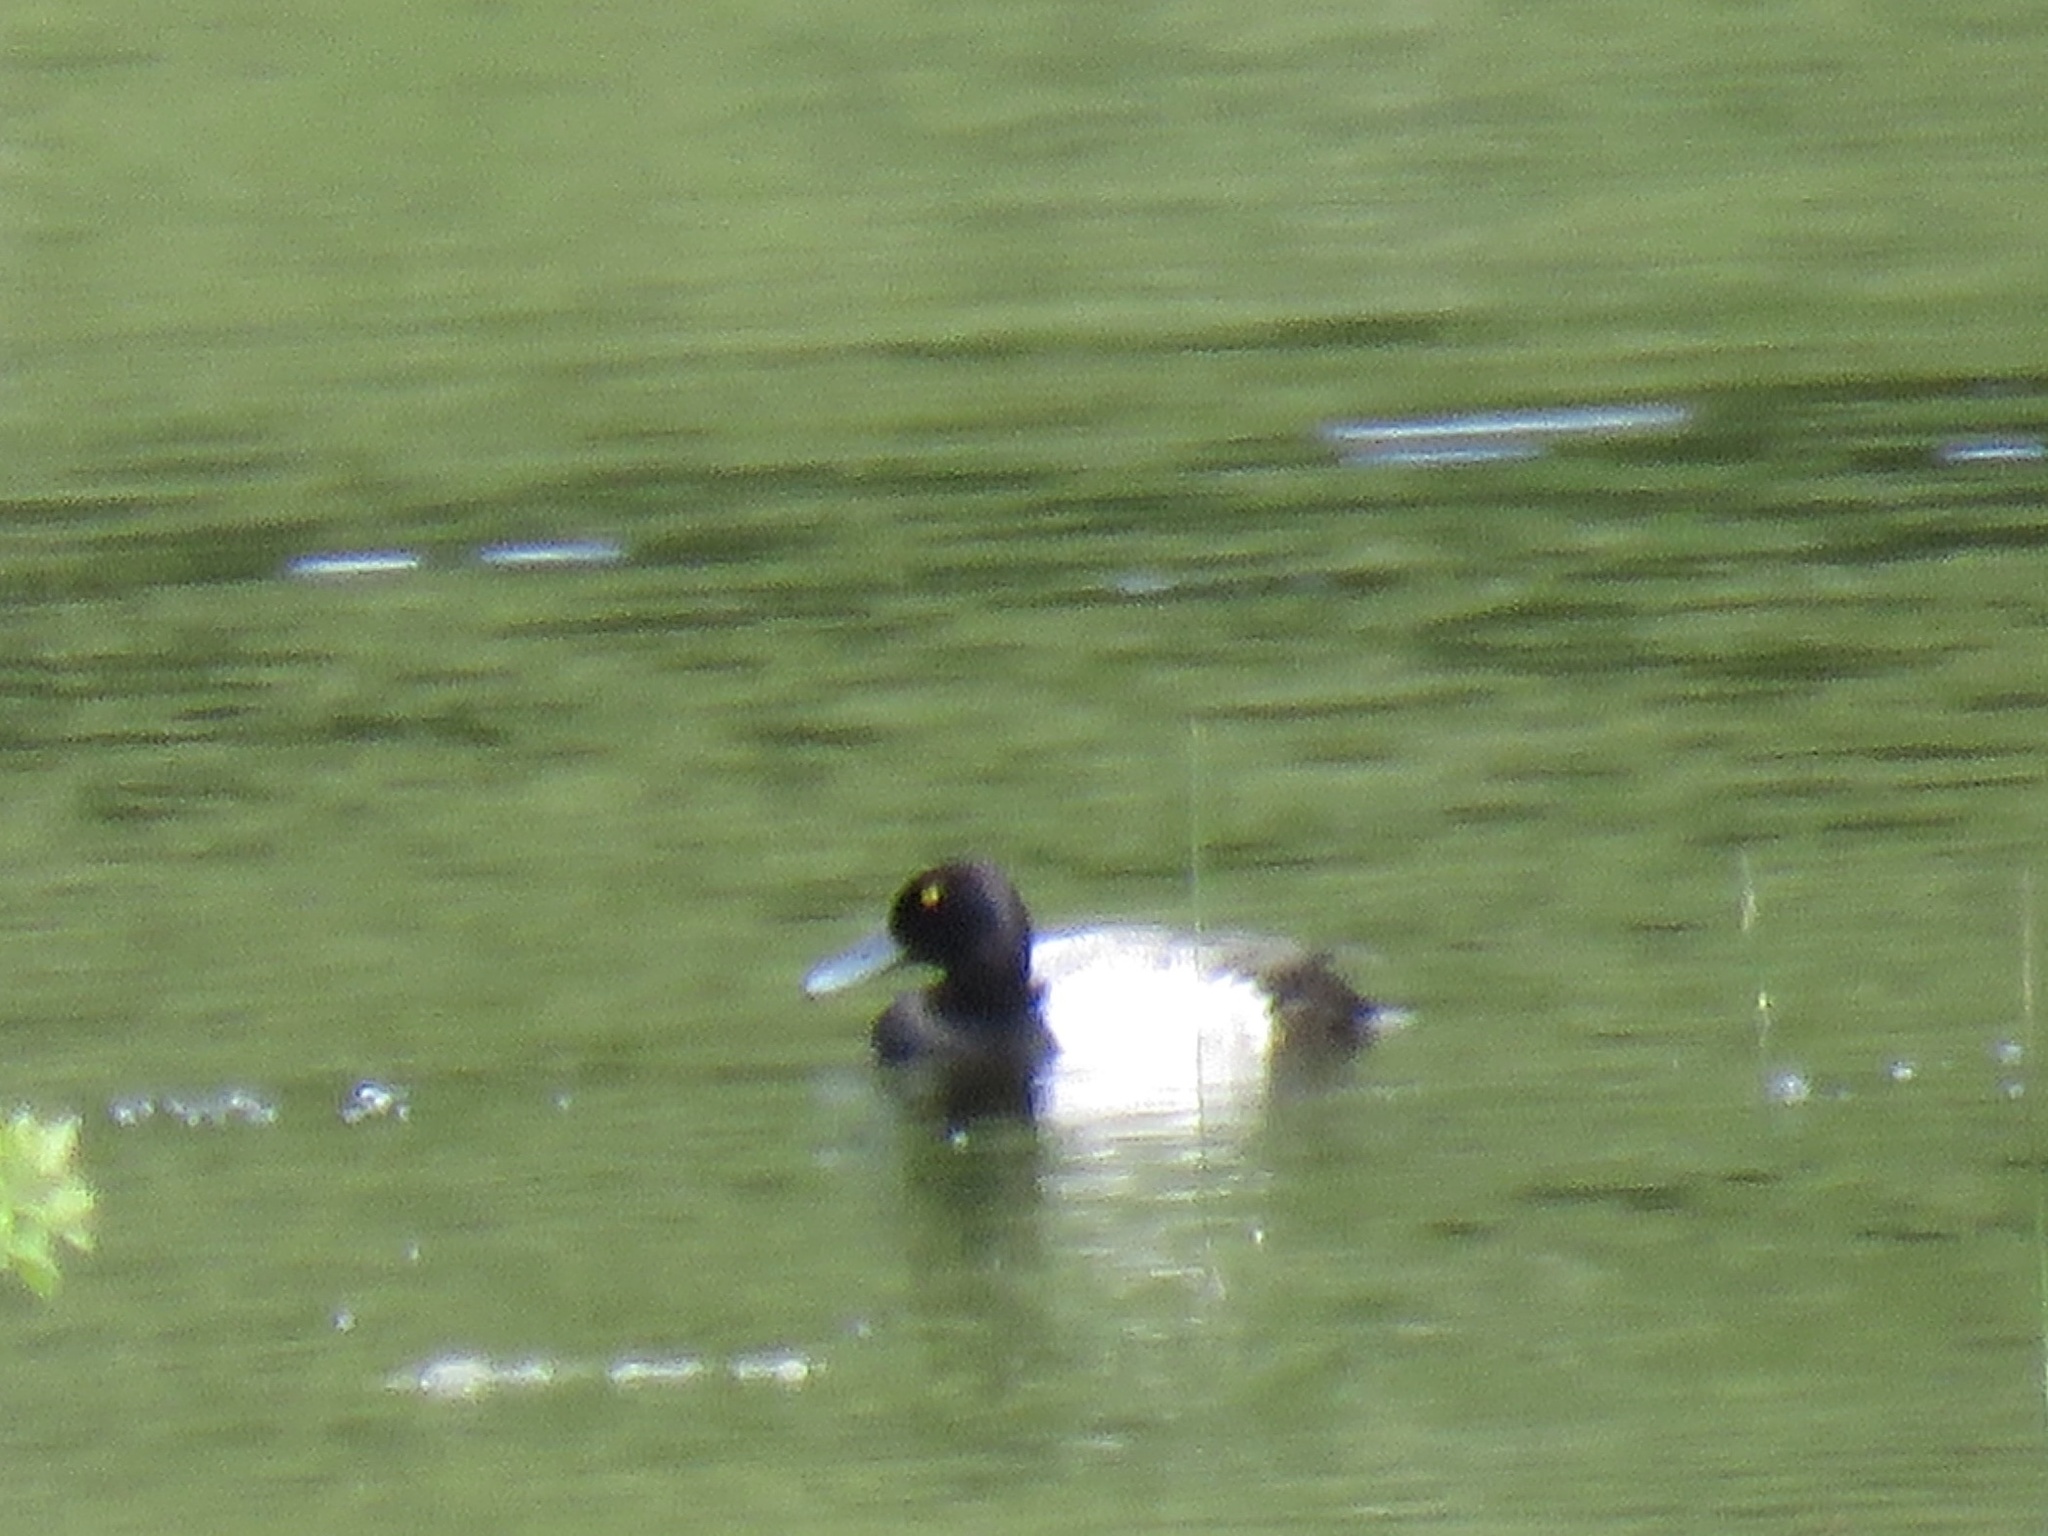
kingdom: Animalia
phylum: Chordata
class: Aves
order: Anseriformes
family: Anatidae
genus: Aythya
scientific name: Aythya affinis
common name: Lesser scaup
